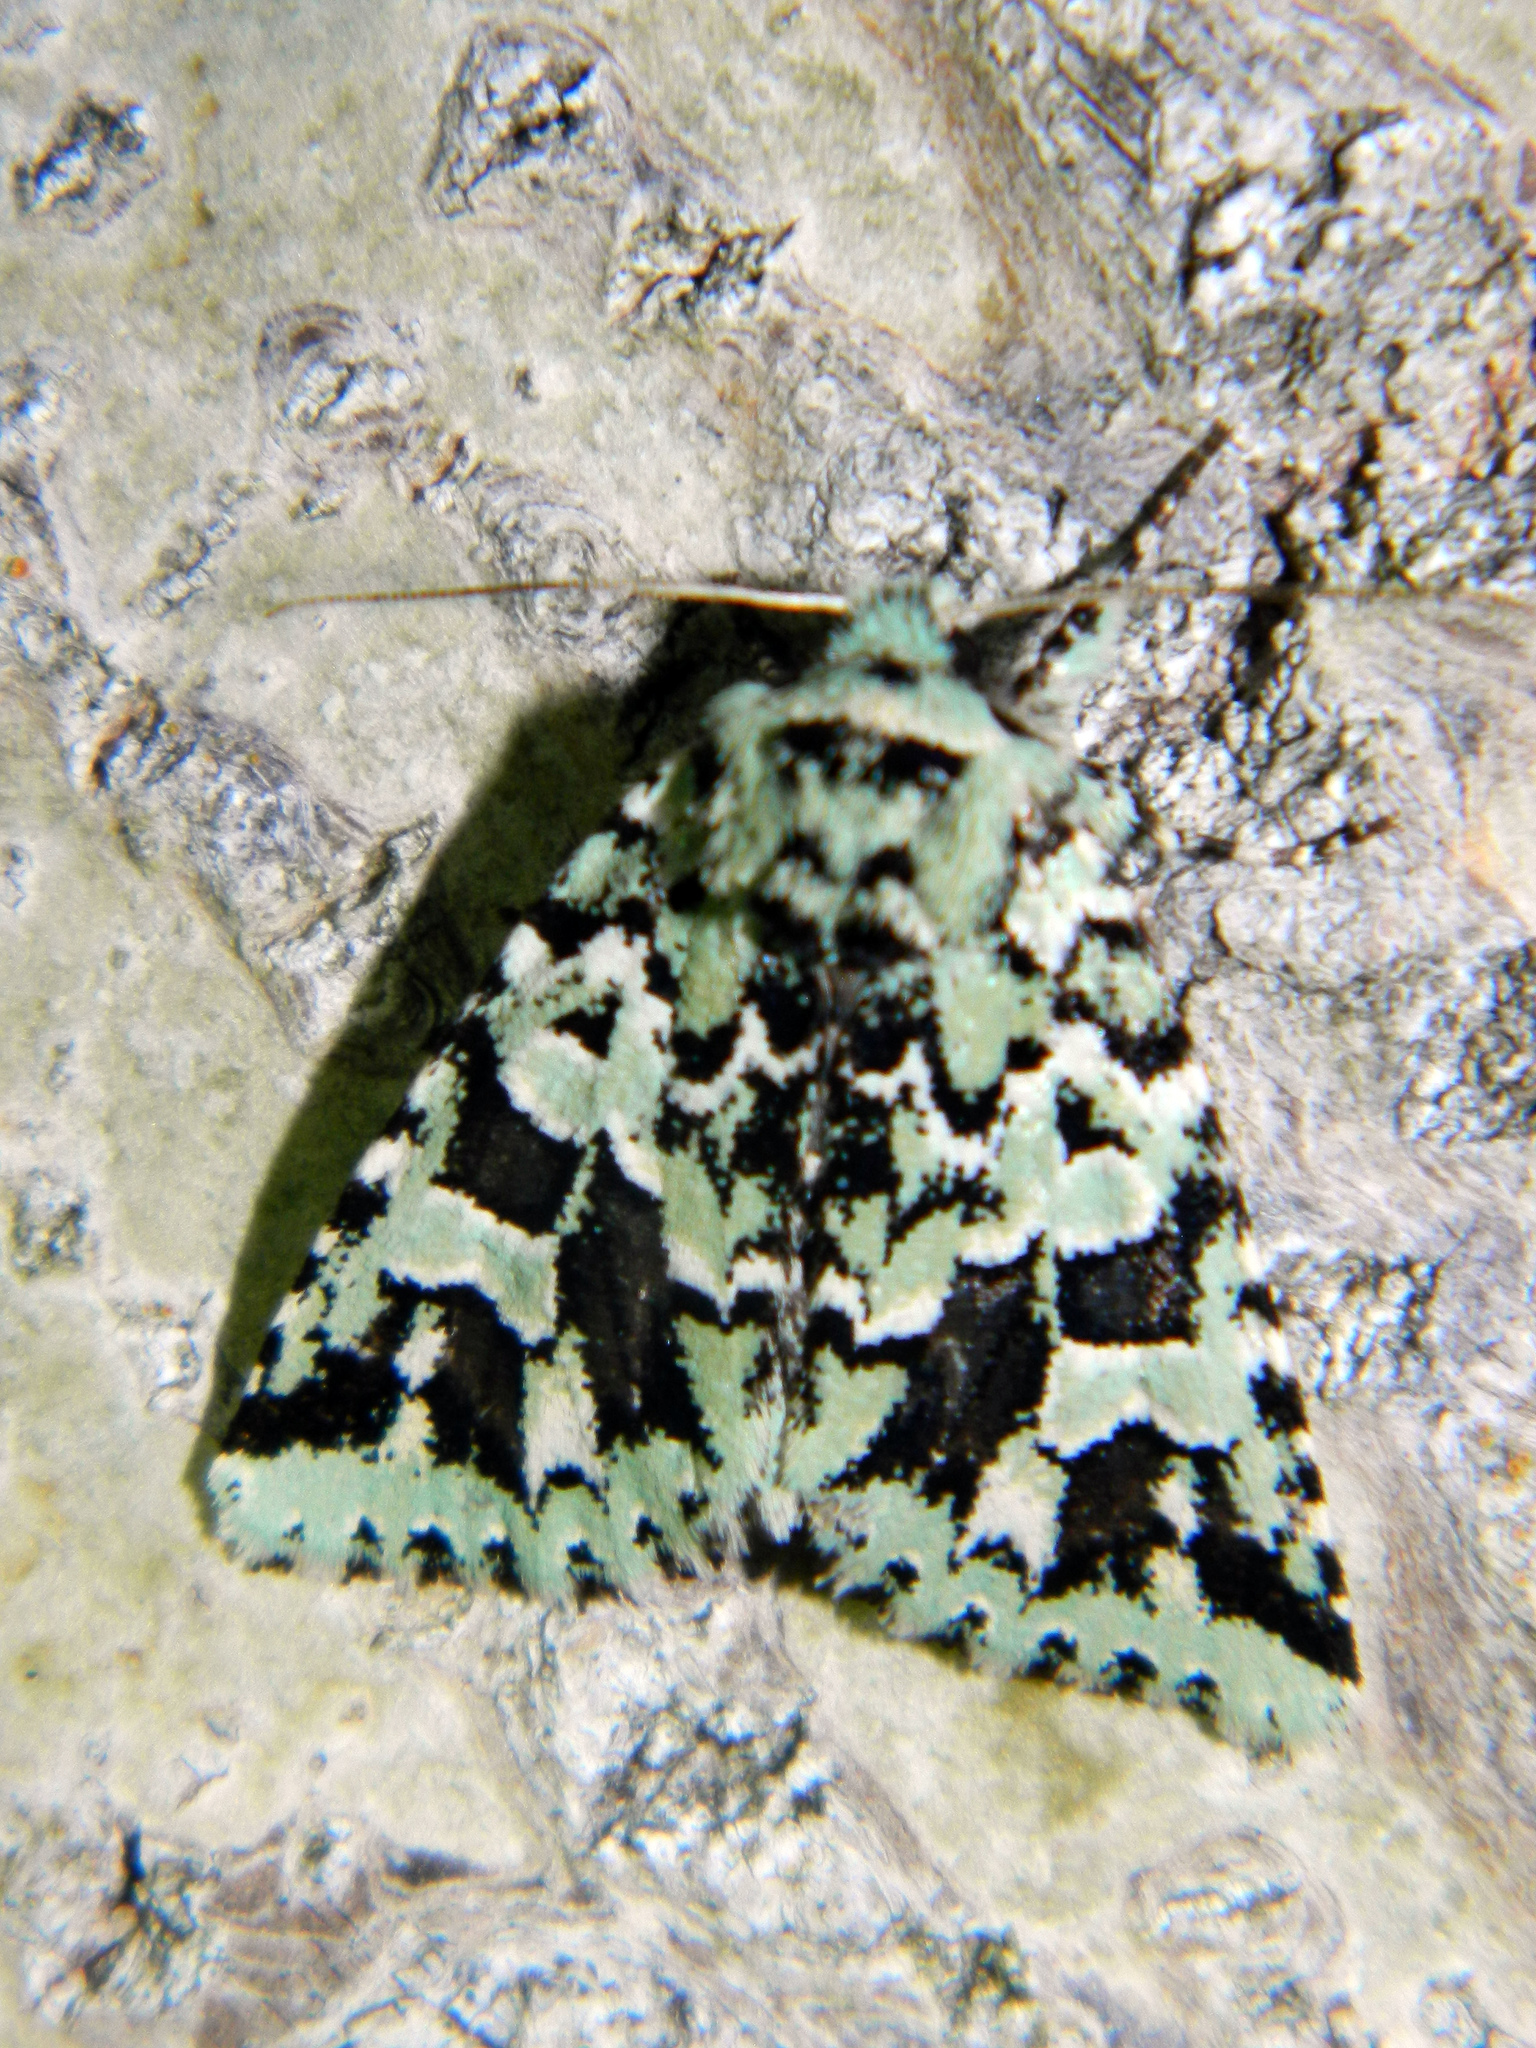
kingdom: Animalia
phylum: Arthropoda
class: Insecta
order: Lepidoptera
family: Noctuidae
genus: Feralia
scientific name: Feralia comstocki
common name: Comstock's sallow
